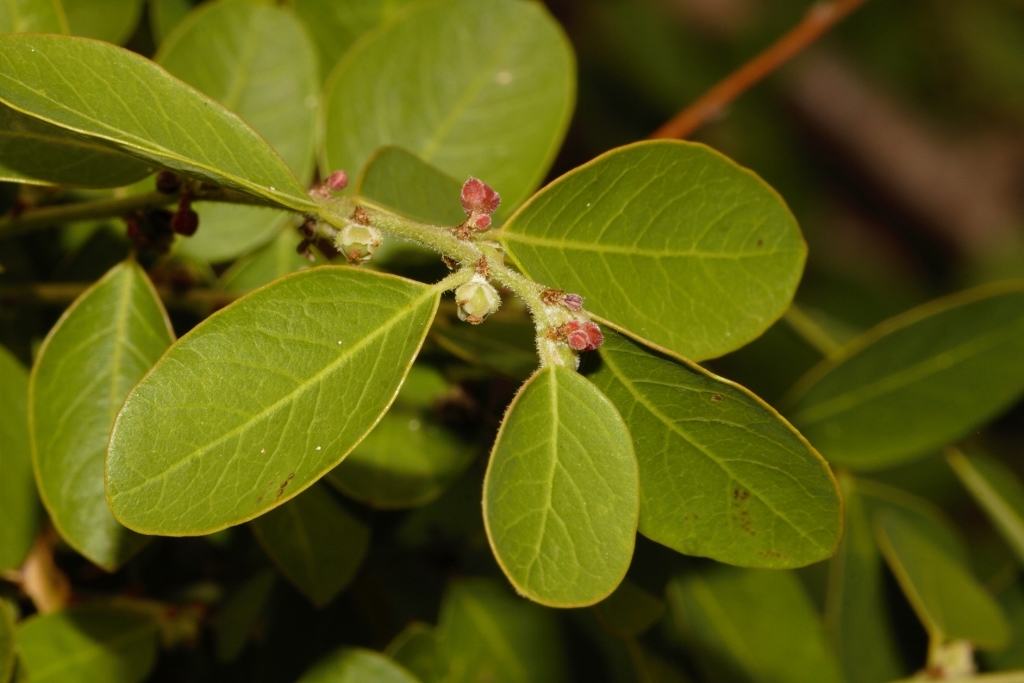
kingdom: Plantae
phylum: Tracheophyta
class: Magnoliopsida
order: Malpighiales
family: Phyllanthaceae
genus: Phyllanthus
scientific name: Phyllanthus reticulatus
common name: Potato bush
